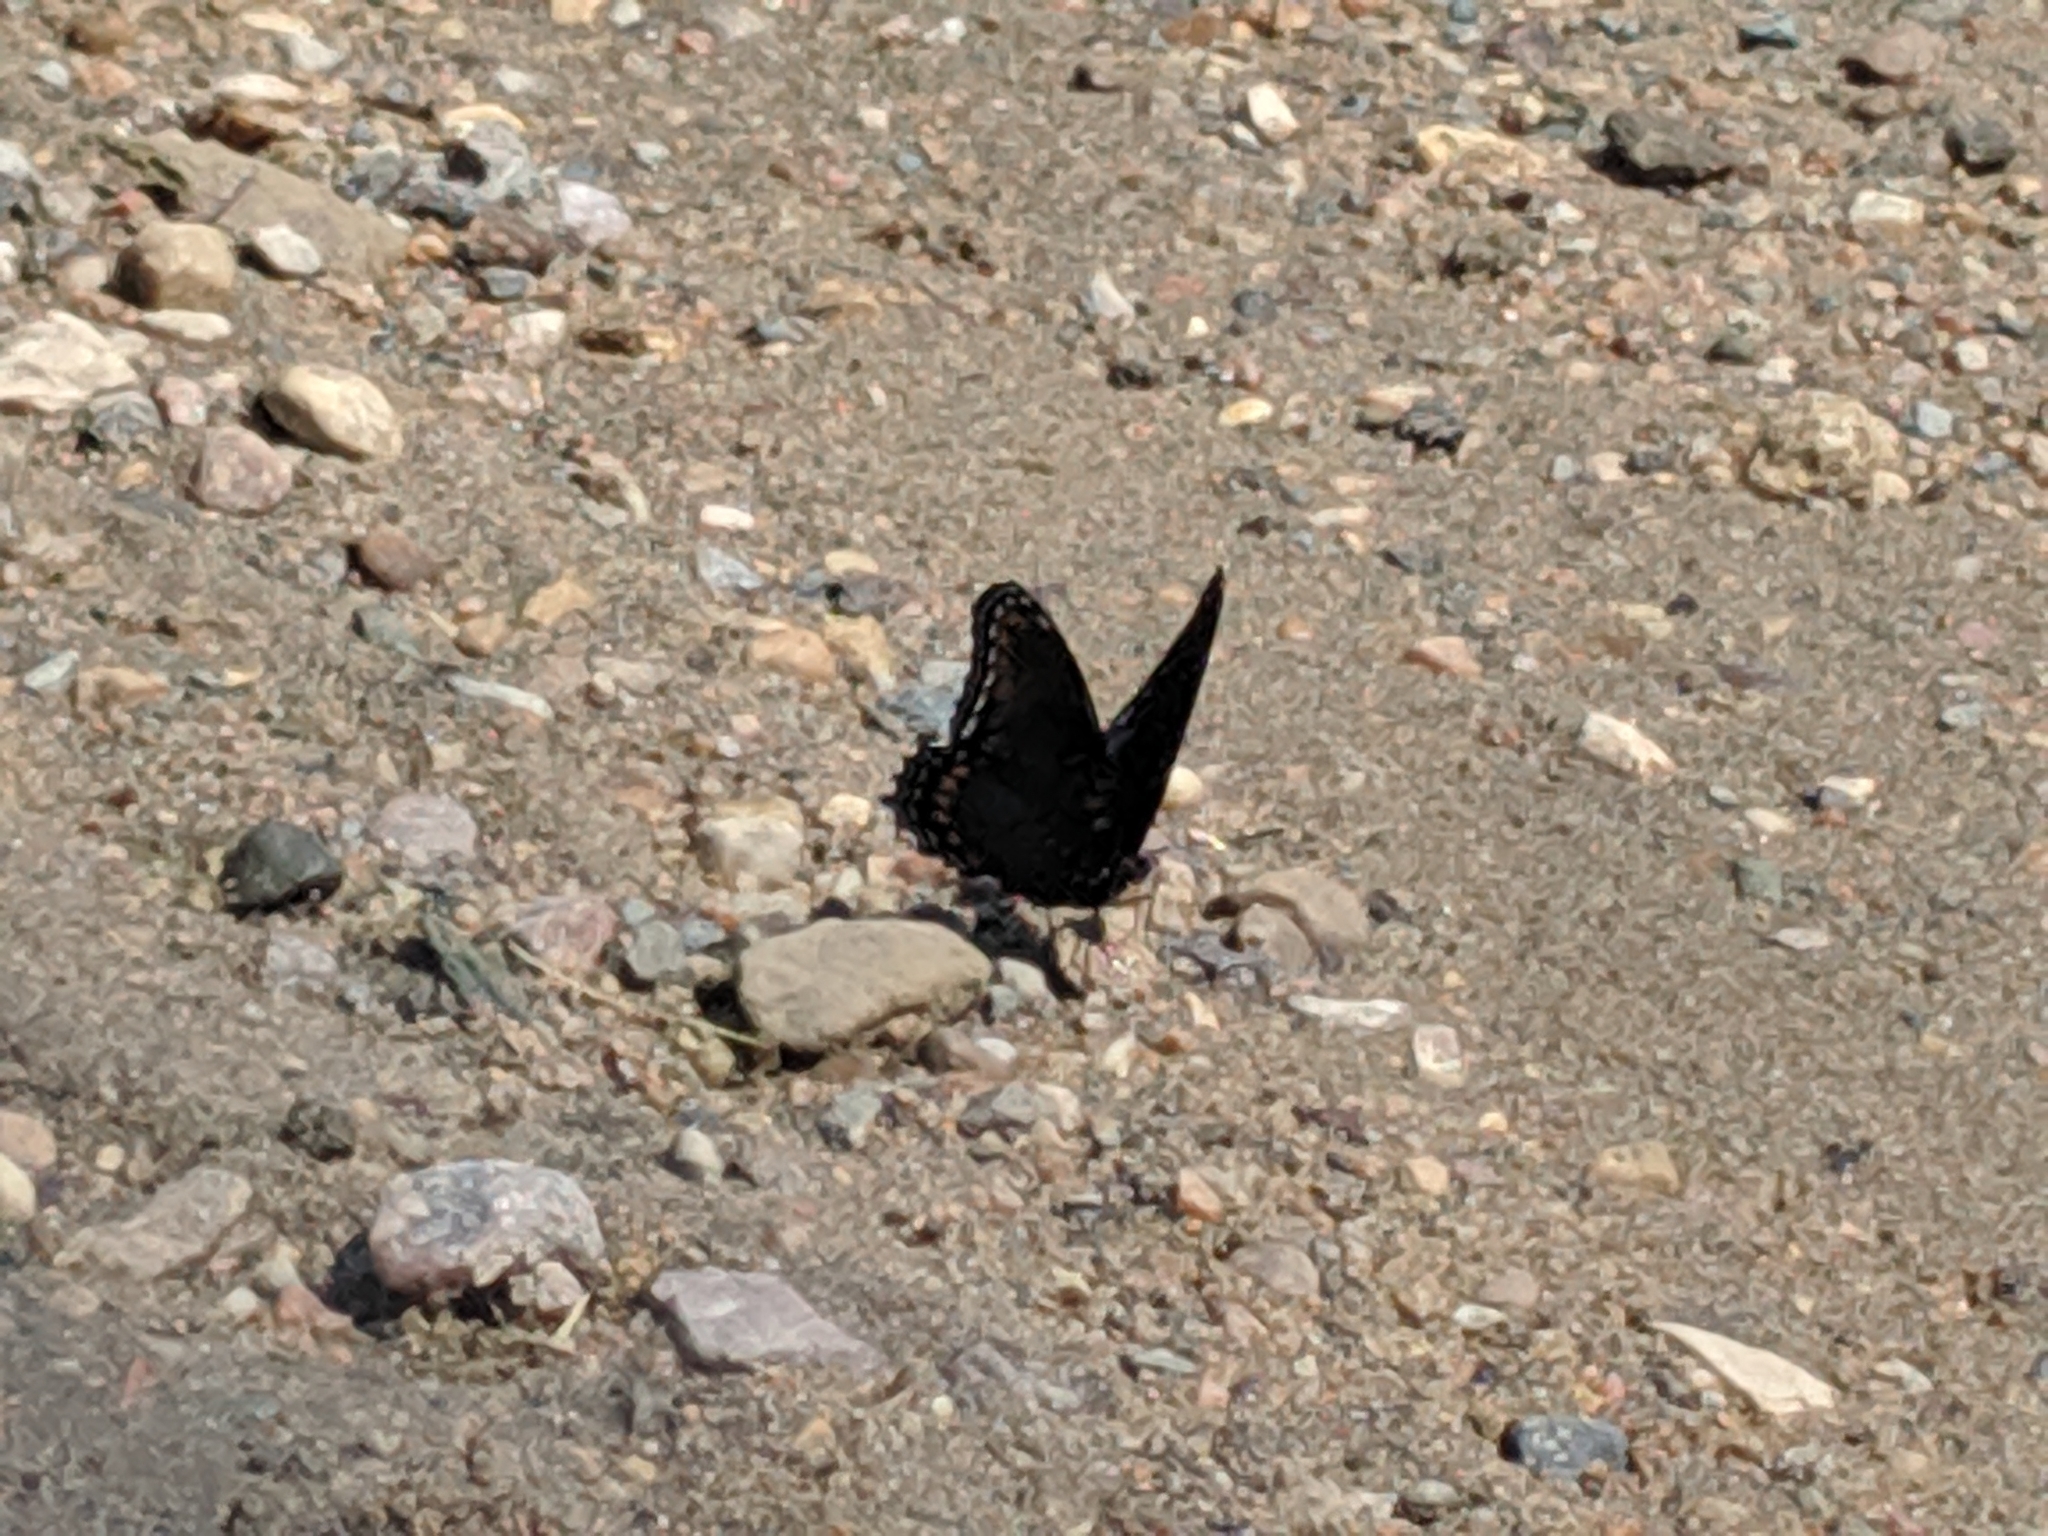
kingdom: Animalia
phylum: Arthropoda
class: Insecta
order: Lepidoptera
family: Nymphalidae
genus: Limenitis
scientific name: Limenitis astyanax
